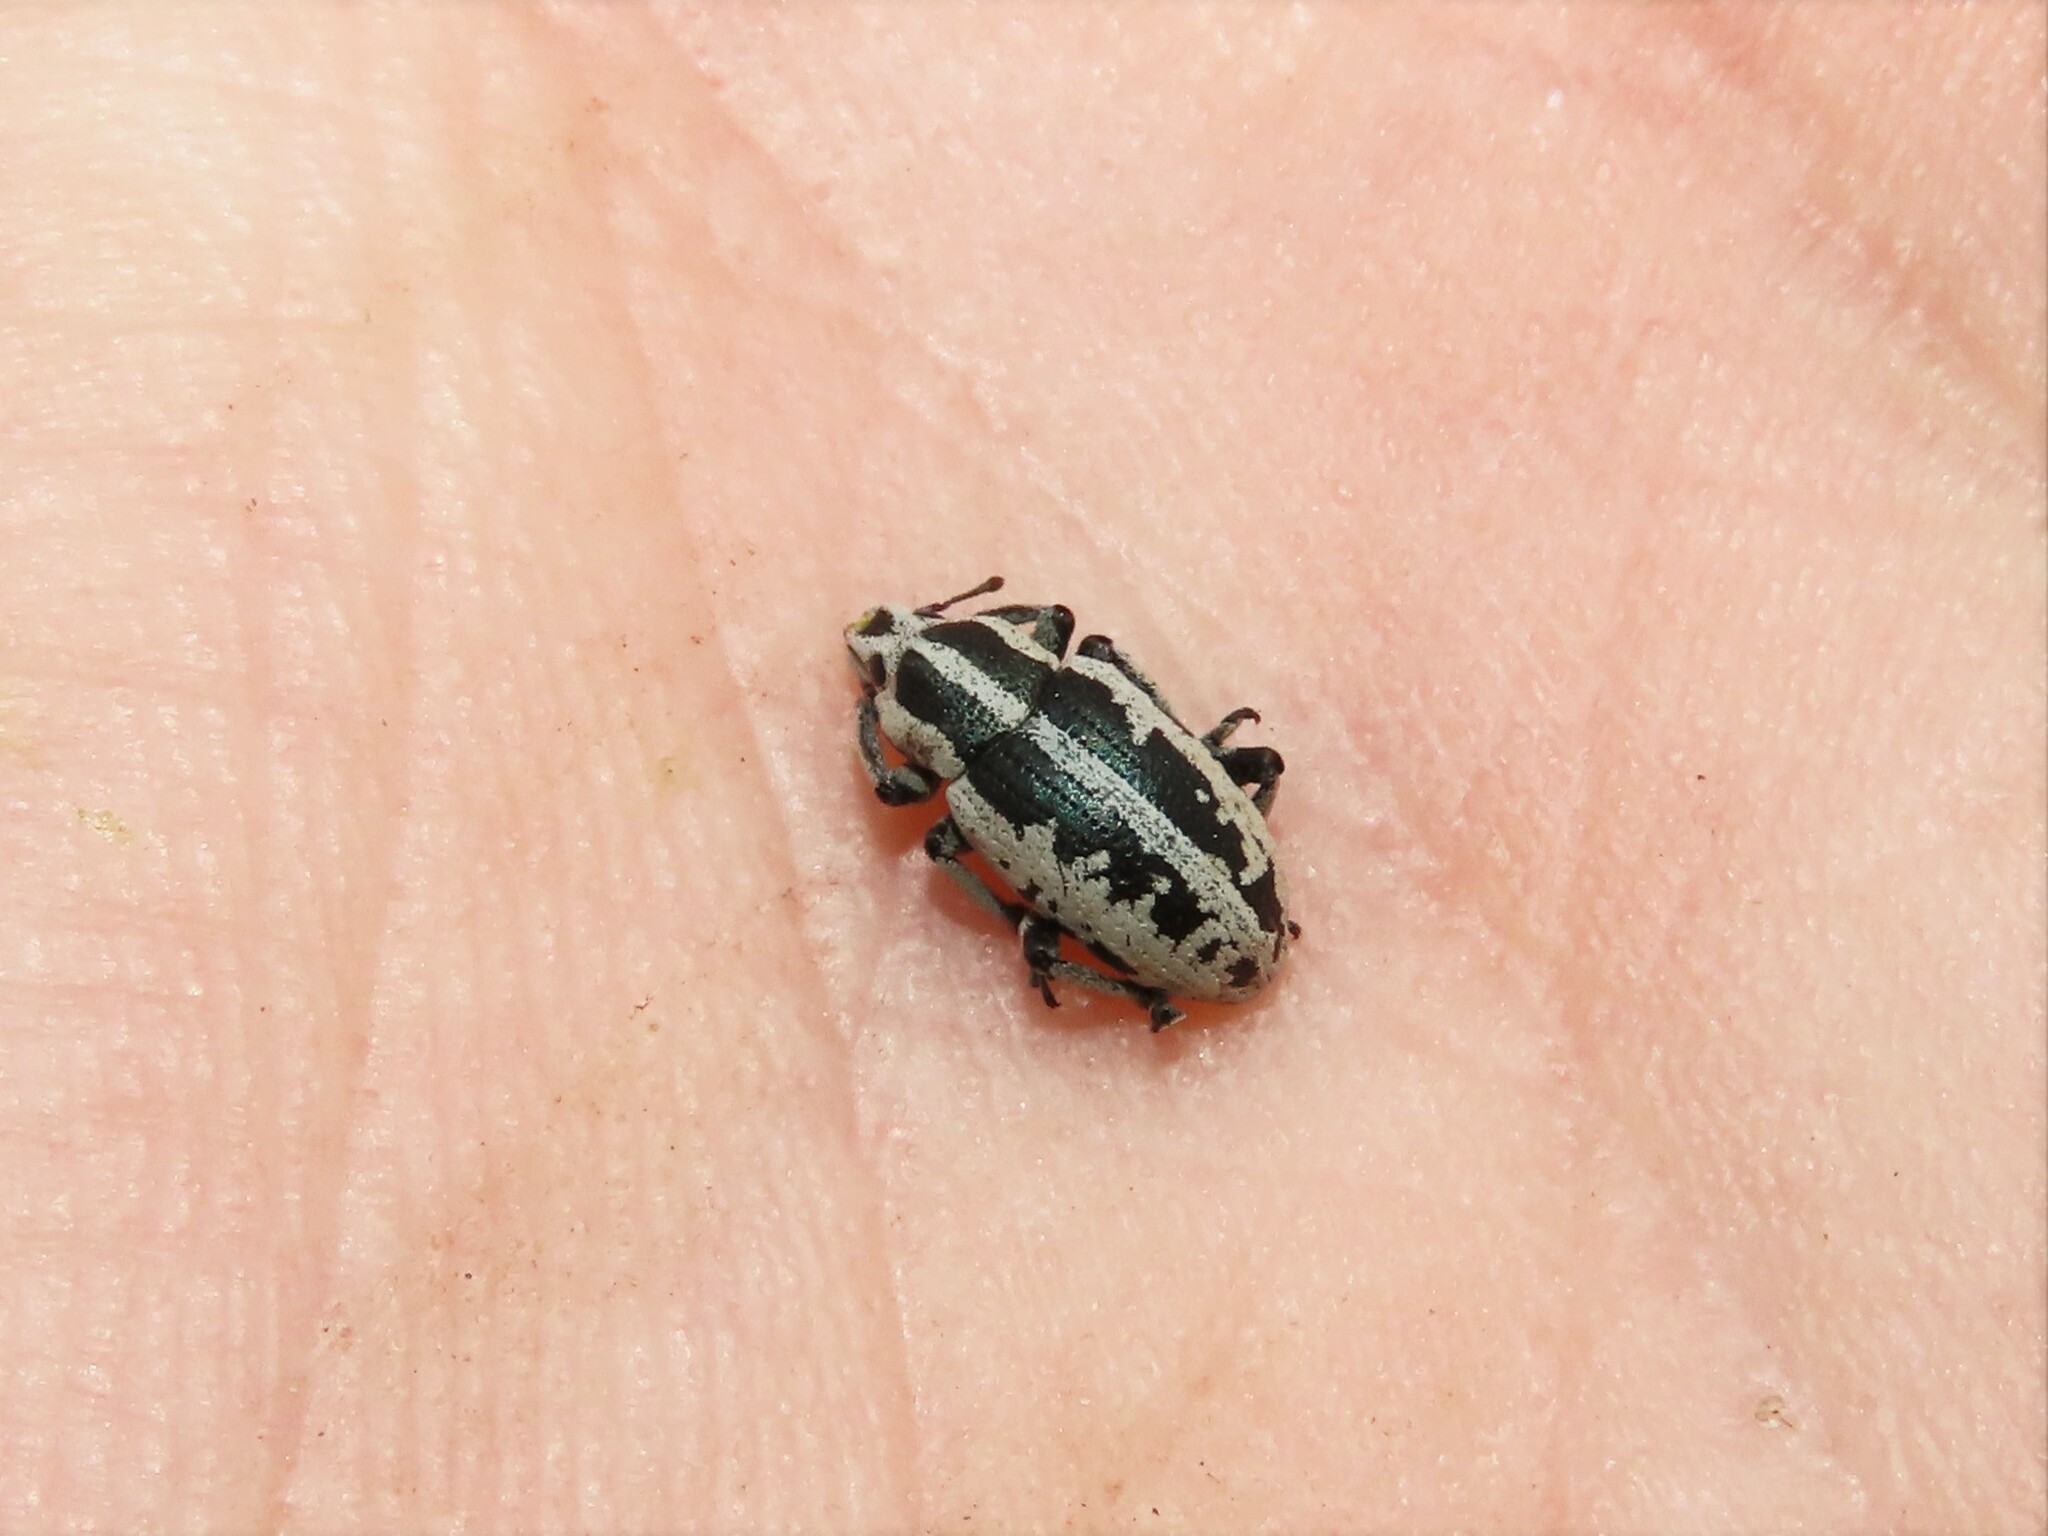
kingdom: Animalia
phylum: Arthropoda
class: Insecta
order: Coleoptera
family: Curculionidae
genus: Eudiagogus
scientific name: Eudiagogus rosenschoeldi
